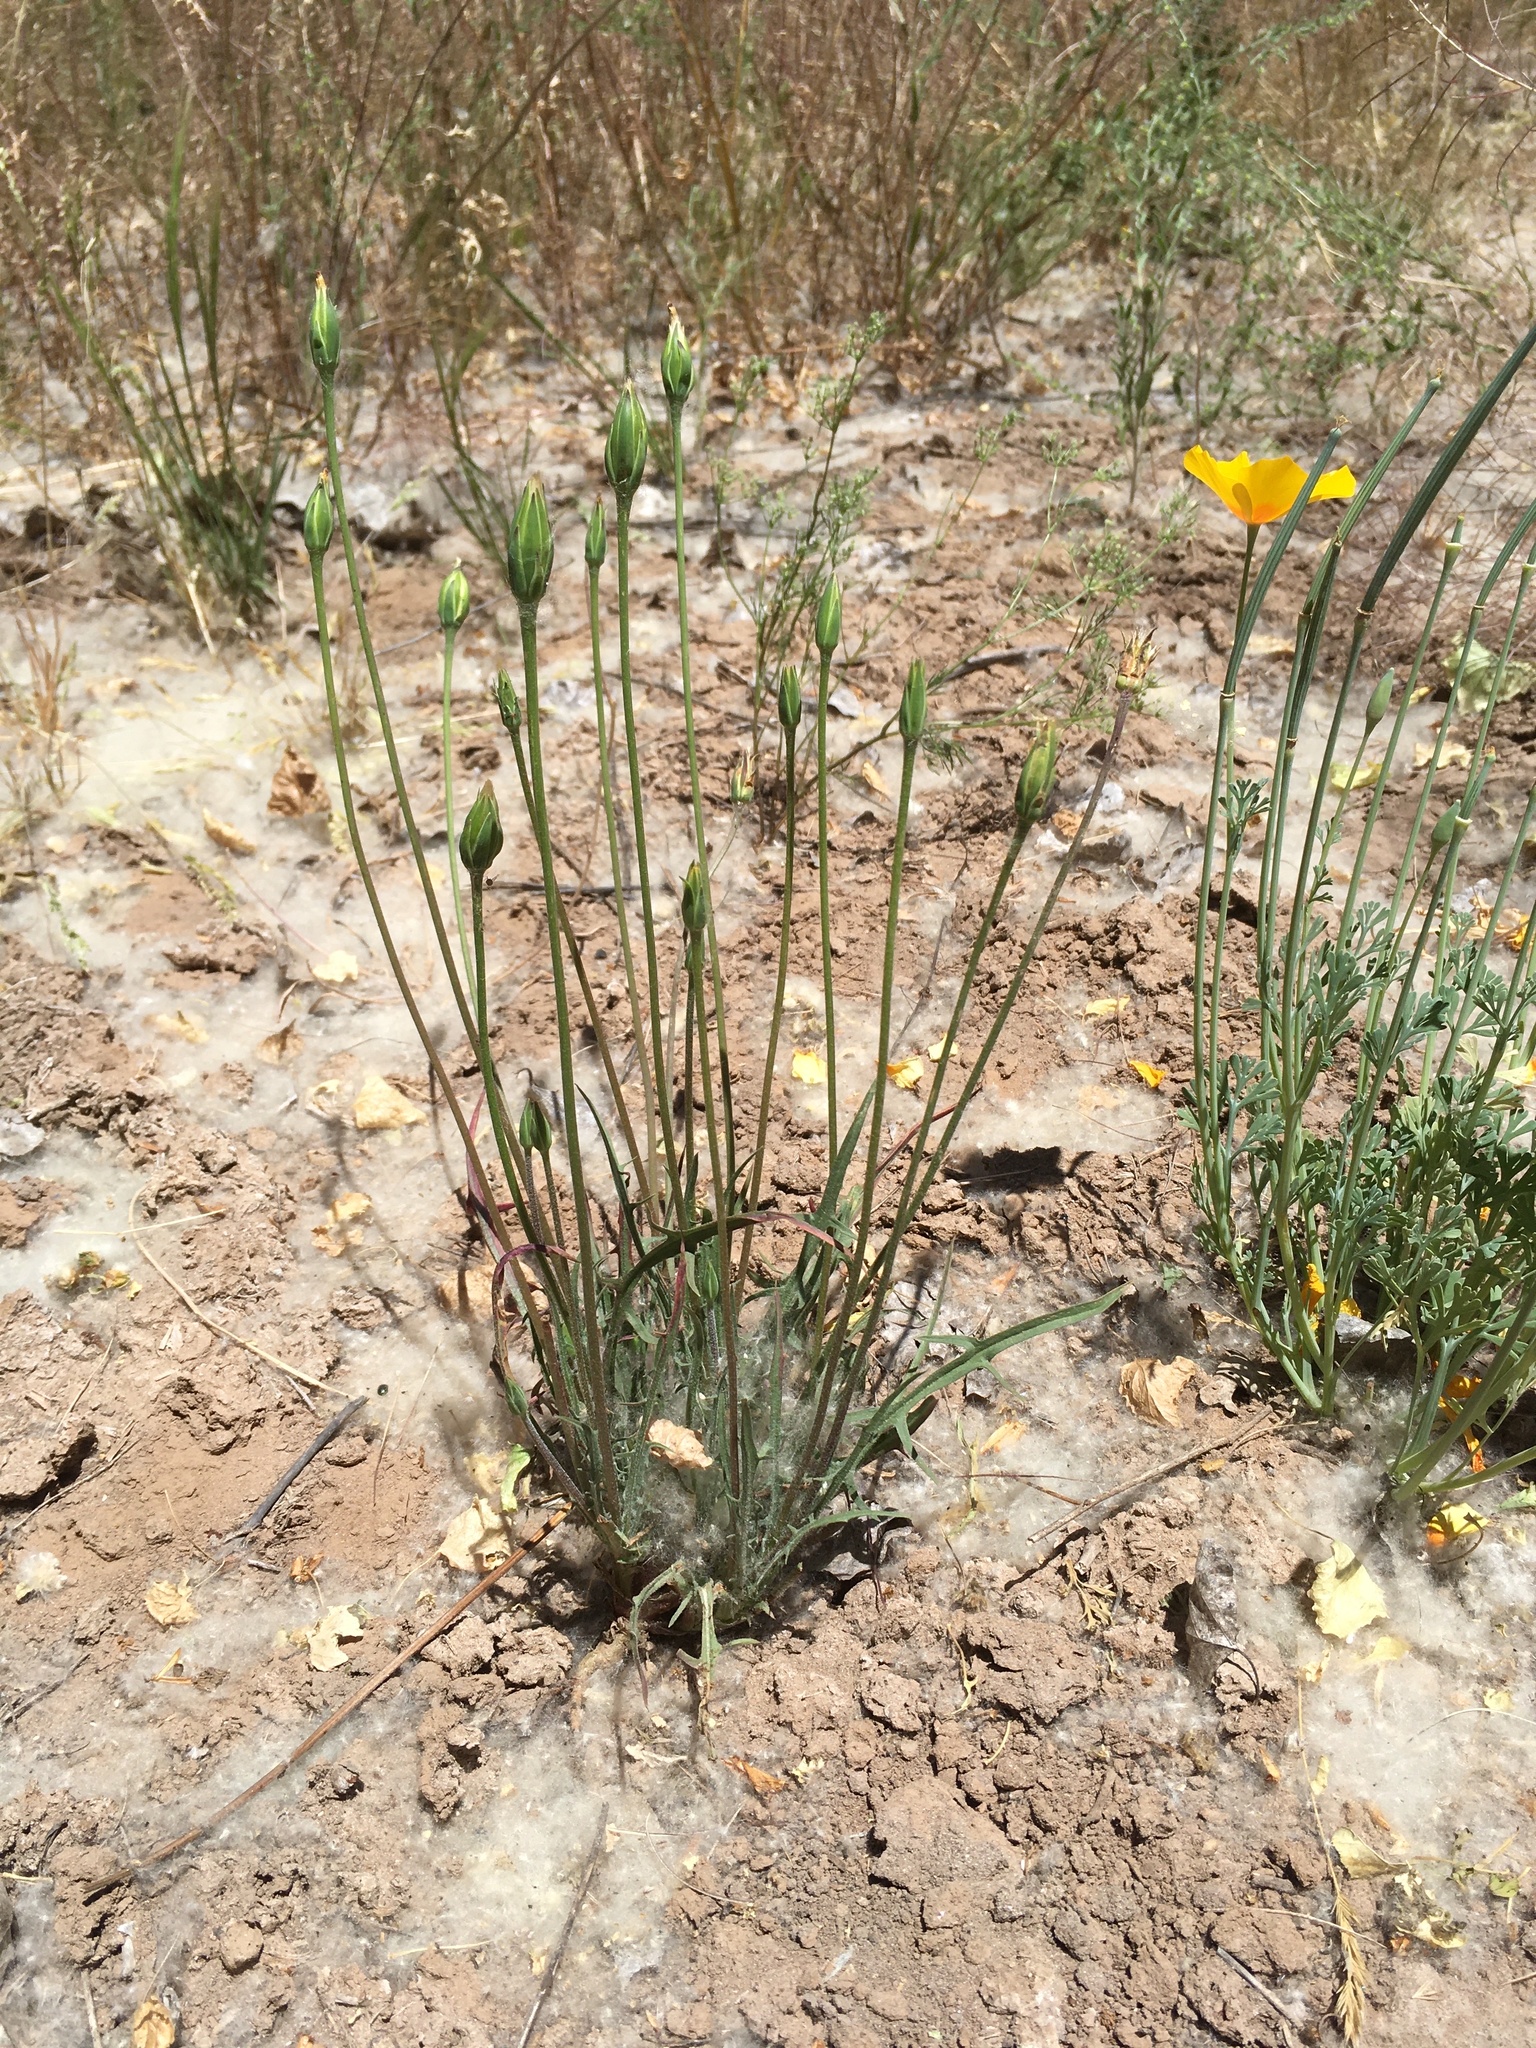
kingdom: Plantae
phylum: Tracheophyta
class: Magnoliopsida
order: Asterales
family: Asteraceae
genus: Microseris
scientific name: Microseris lindleyi
